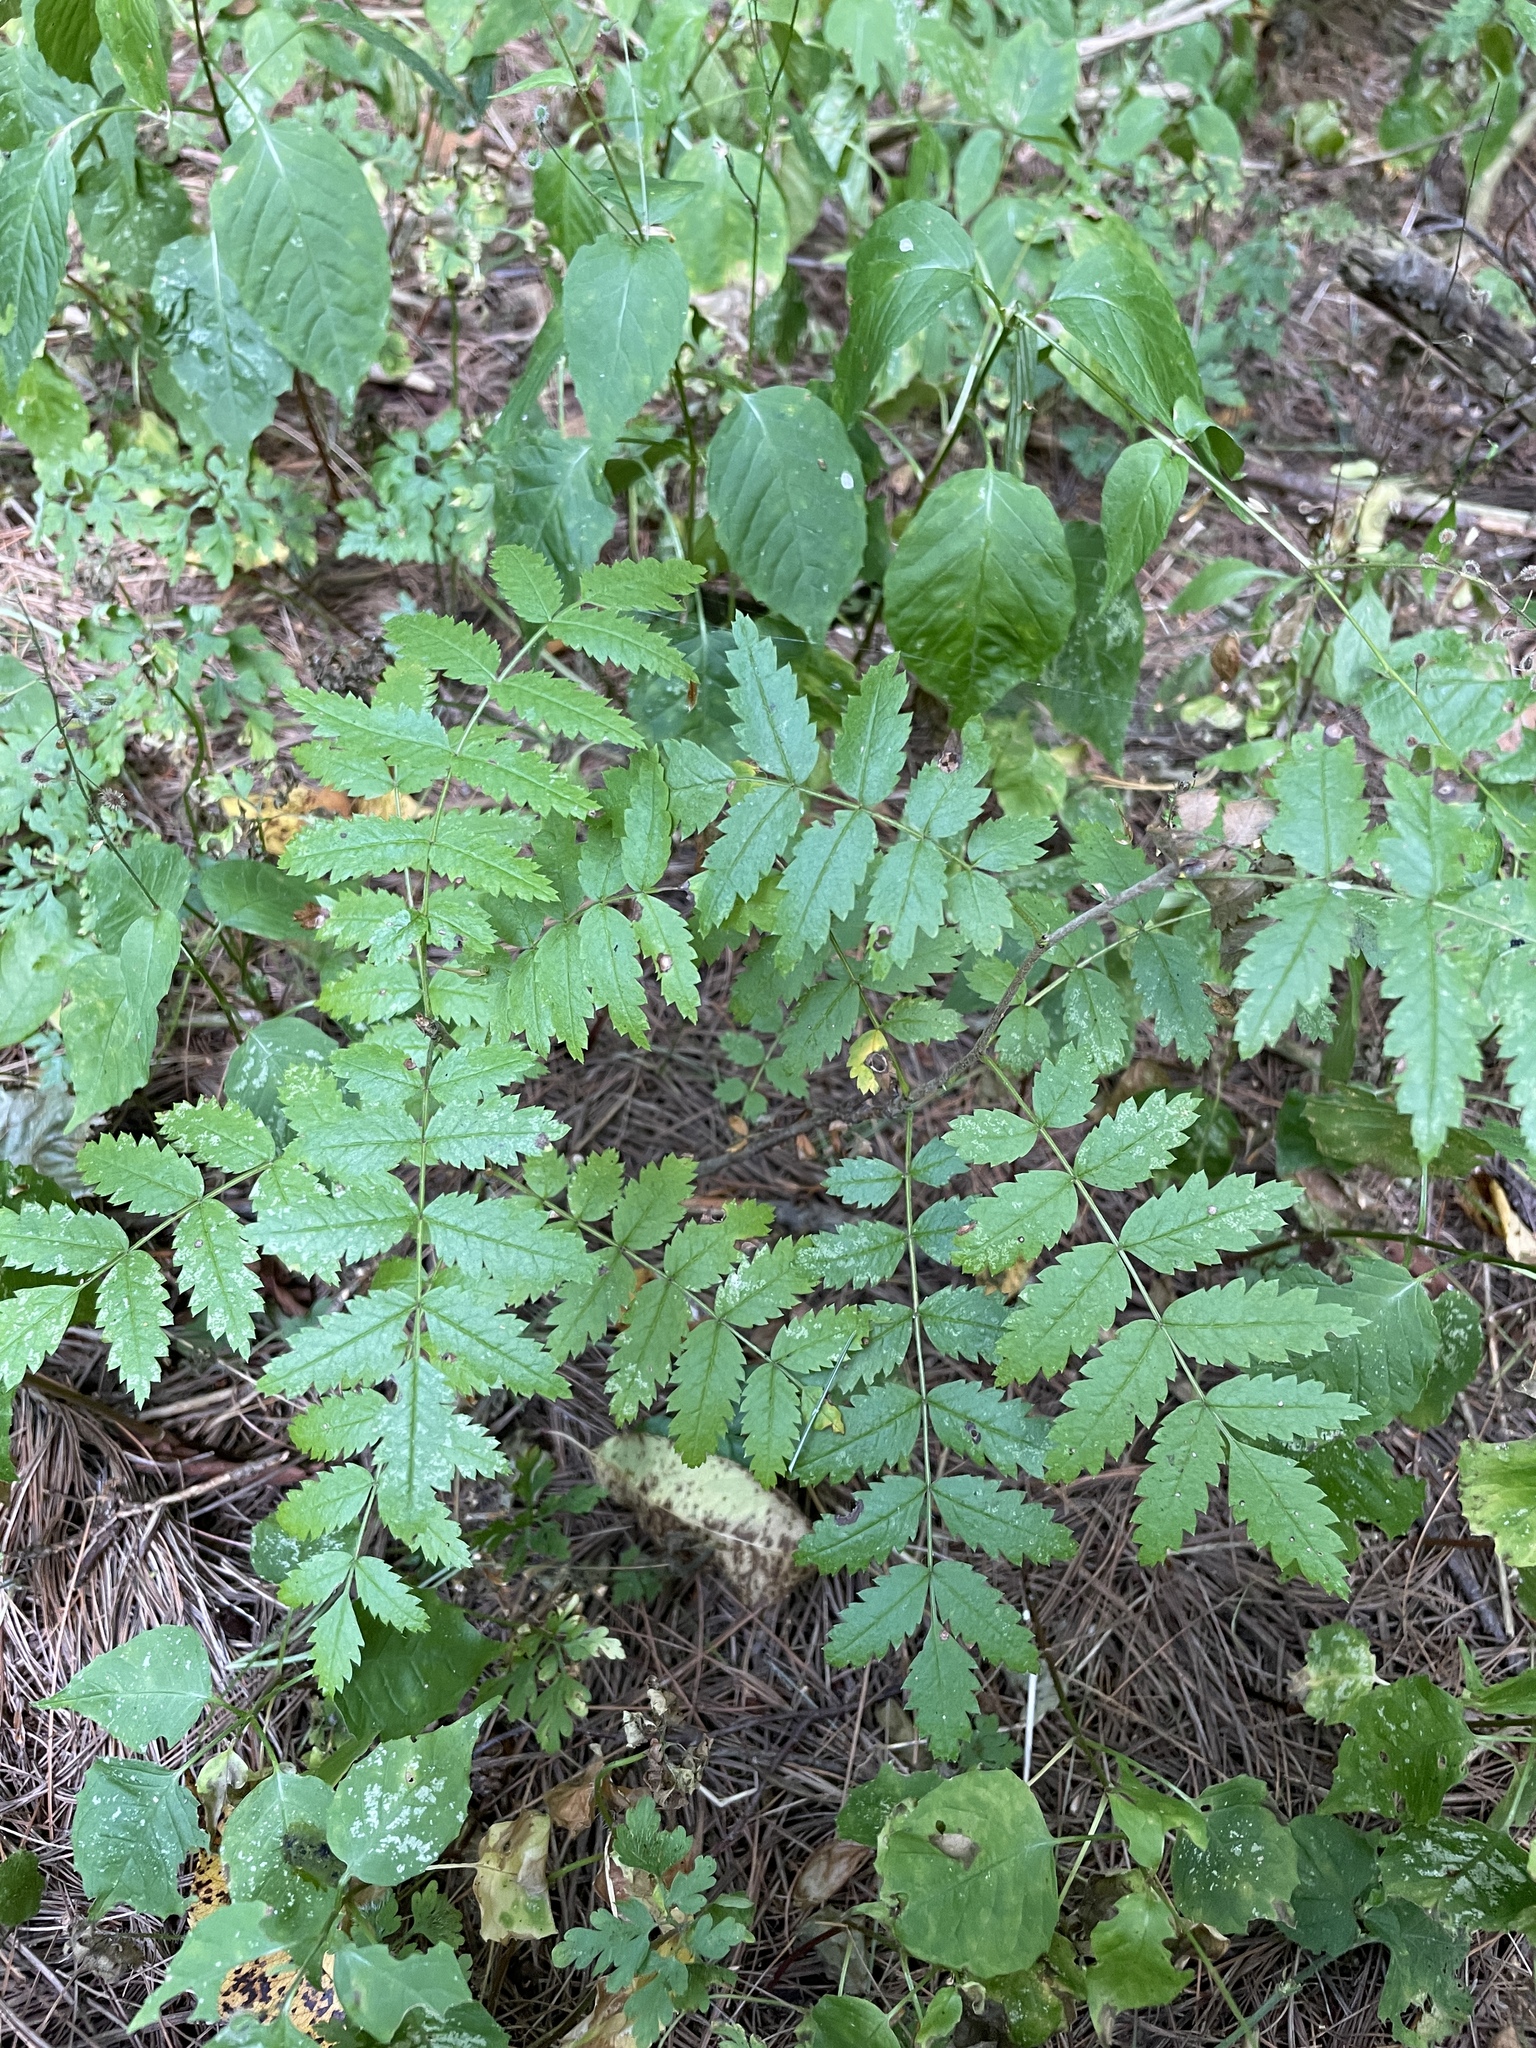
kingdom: Plantae
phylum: Tracheophyta
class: Magnoliopsida
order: Rosales
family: Rosaceae
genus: Sorbus
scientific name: Sorbus aucuparia
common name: Rowan
